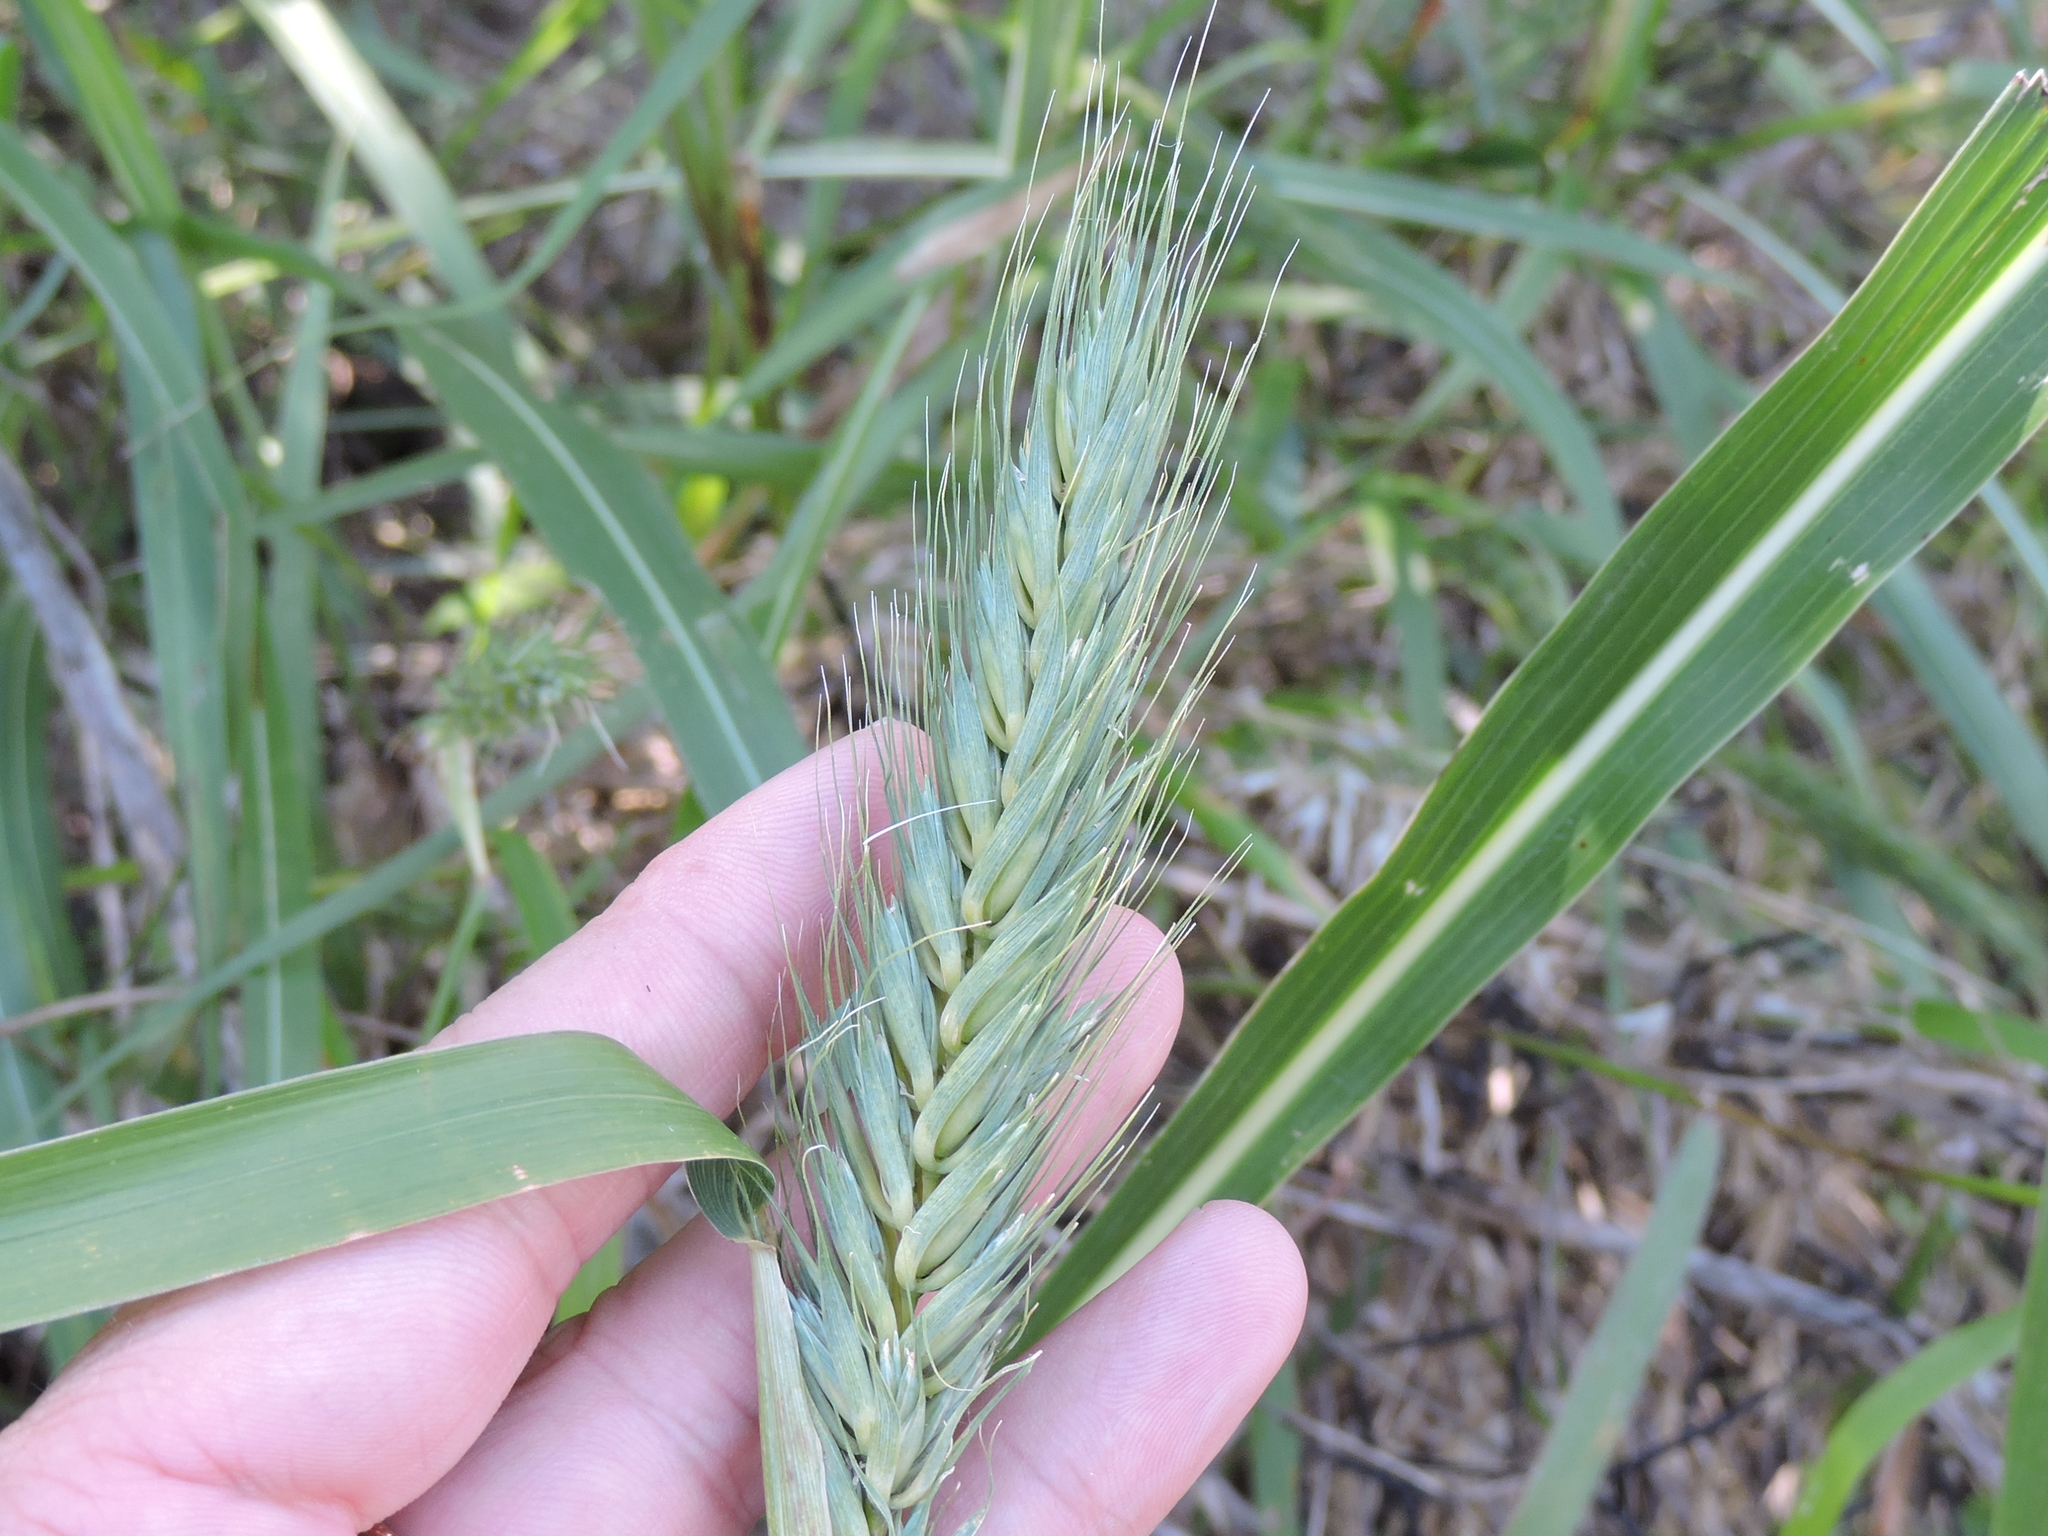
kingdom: Plantae
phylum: Tracheophyta
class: Liliopsida
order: Poales
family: Poaceae
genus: Elymus
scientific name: Elymus virginicus
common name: Common eastern wildrye
